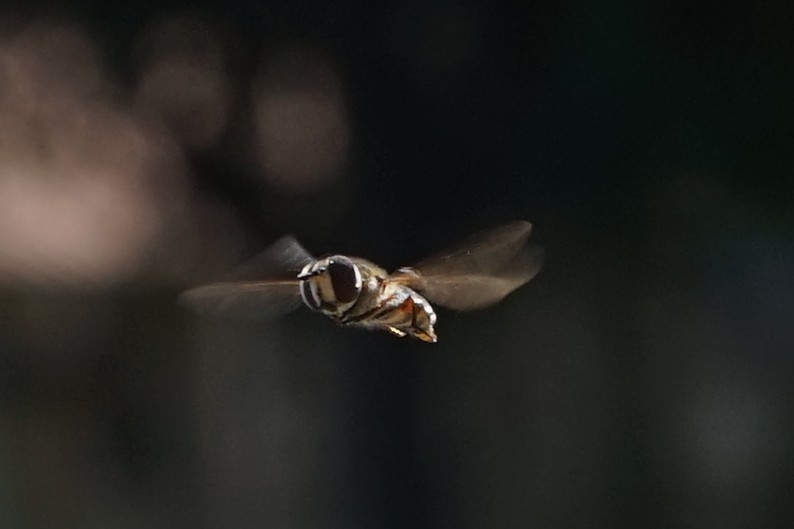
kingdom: Animalia
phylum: Arthropoda
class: Insecta
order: Diptera
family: Syrphidae
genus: Betasyrphus
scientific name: Betasyrphus serarius
